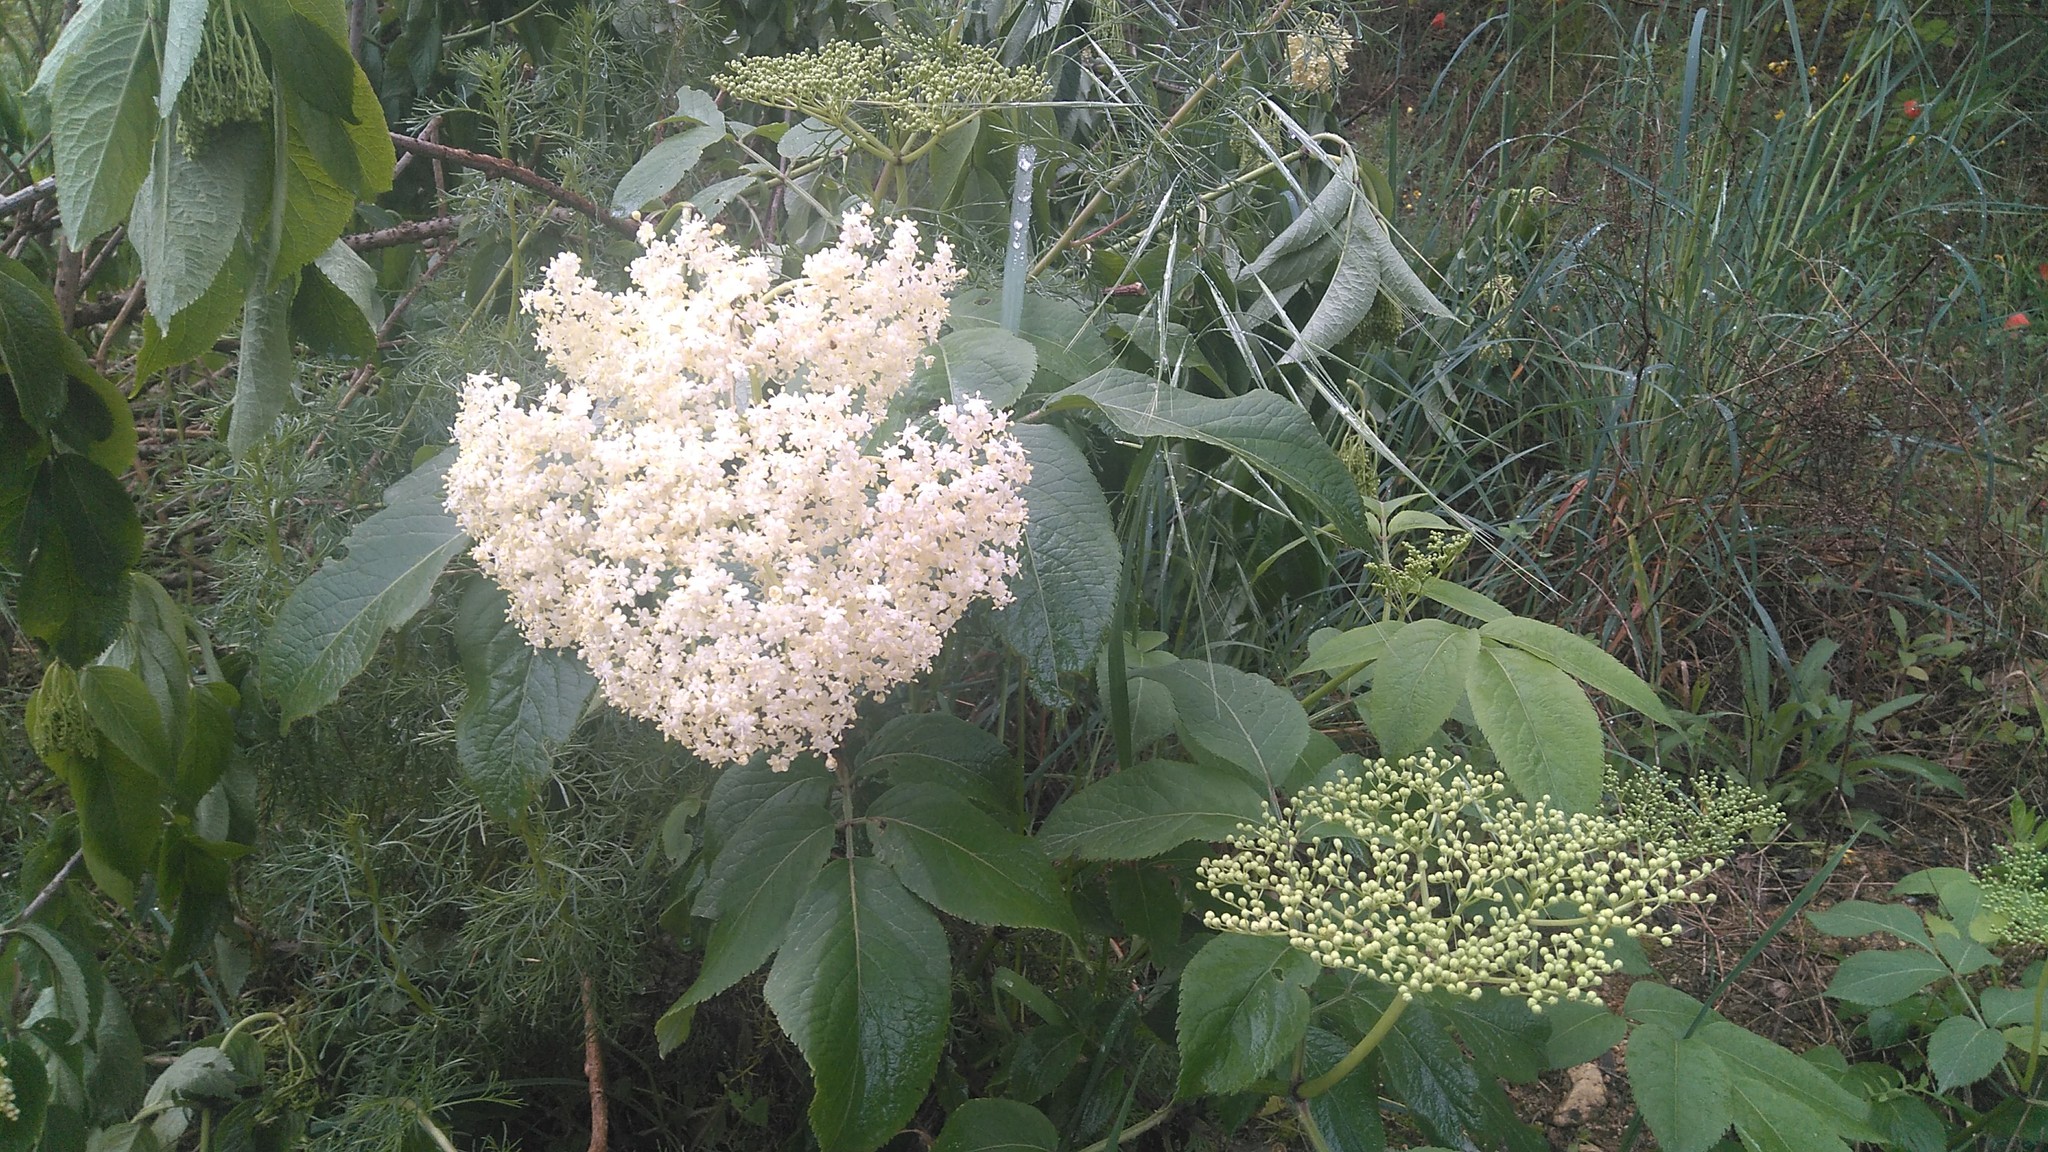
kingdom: Plantae
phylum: Tracheophyta
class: Magnoliopsida
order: Dipsacales
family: Viburnaceae
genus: Sambucus
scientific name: Sambucus nigra
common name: Elder
